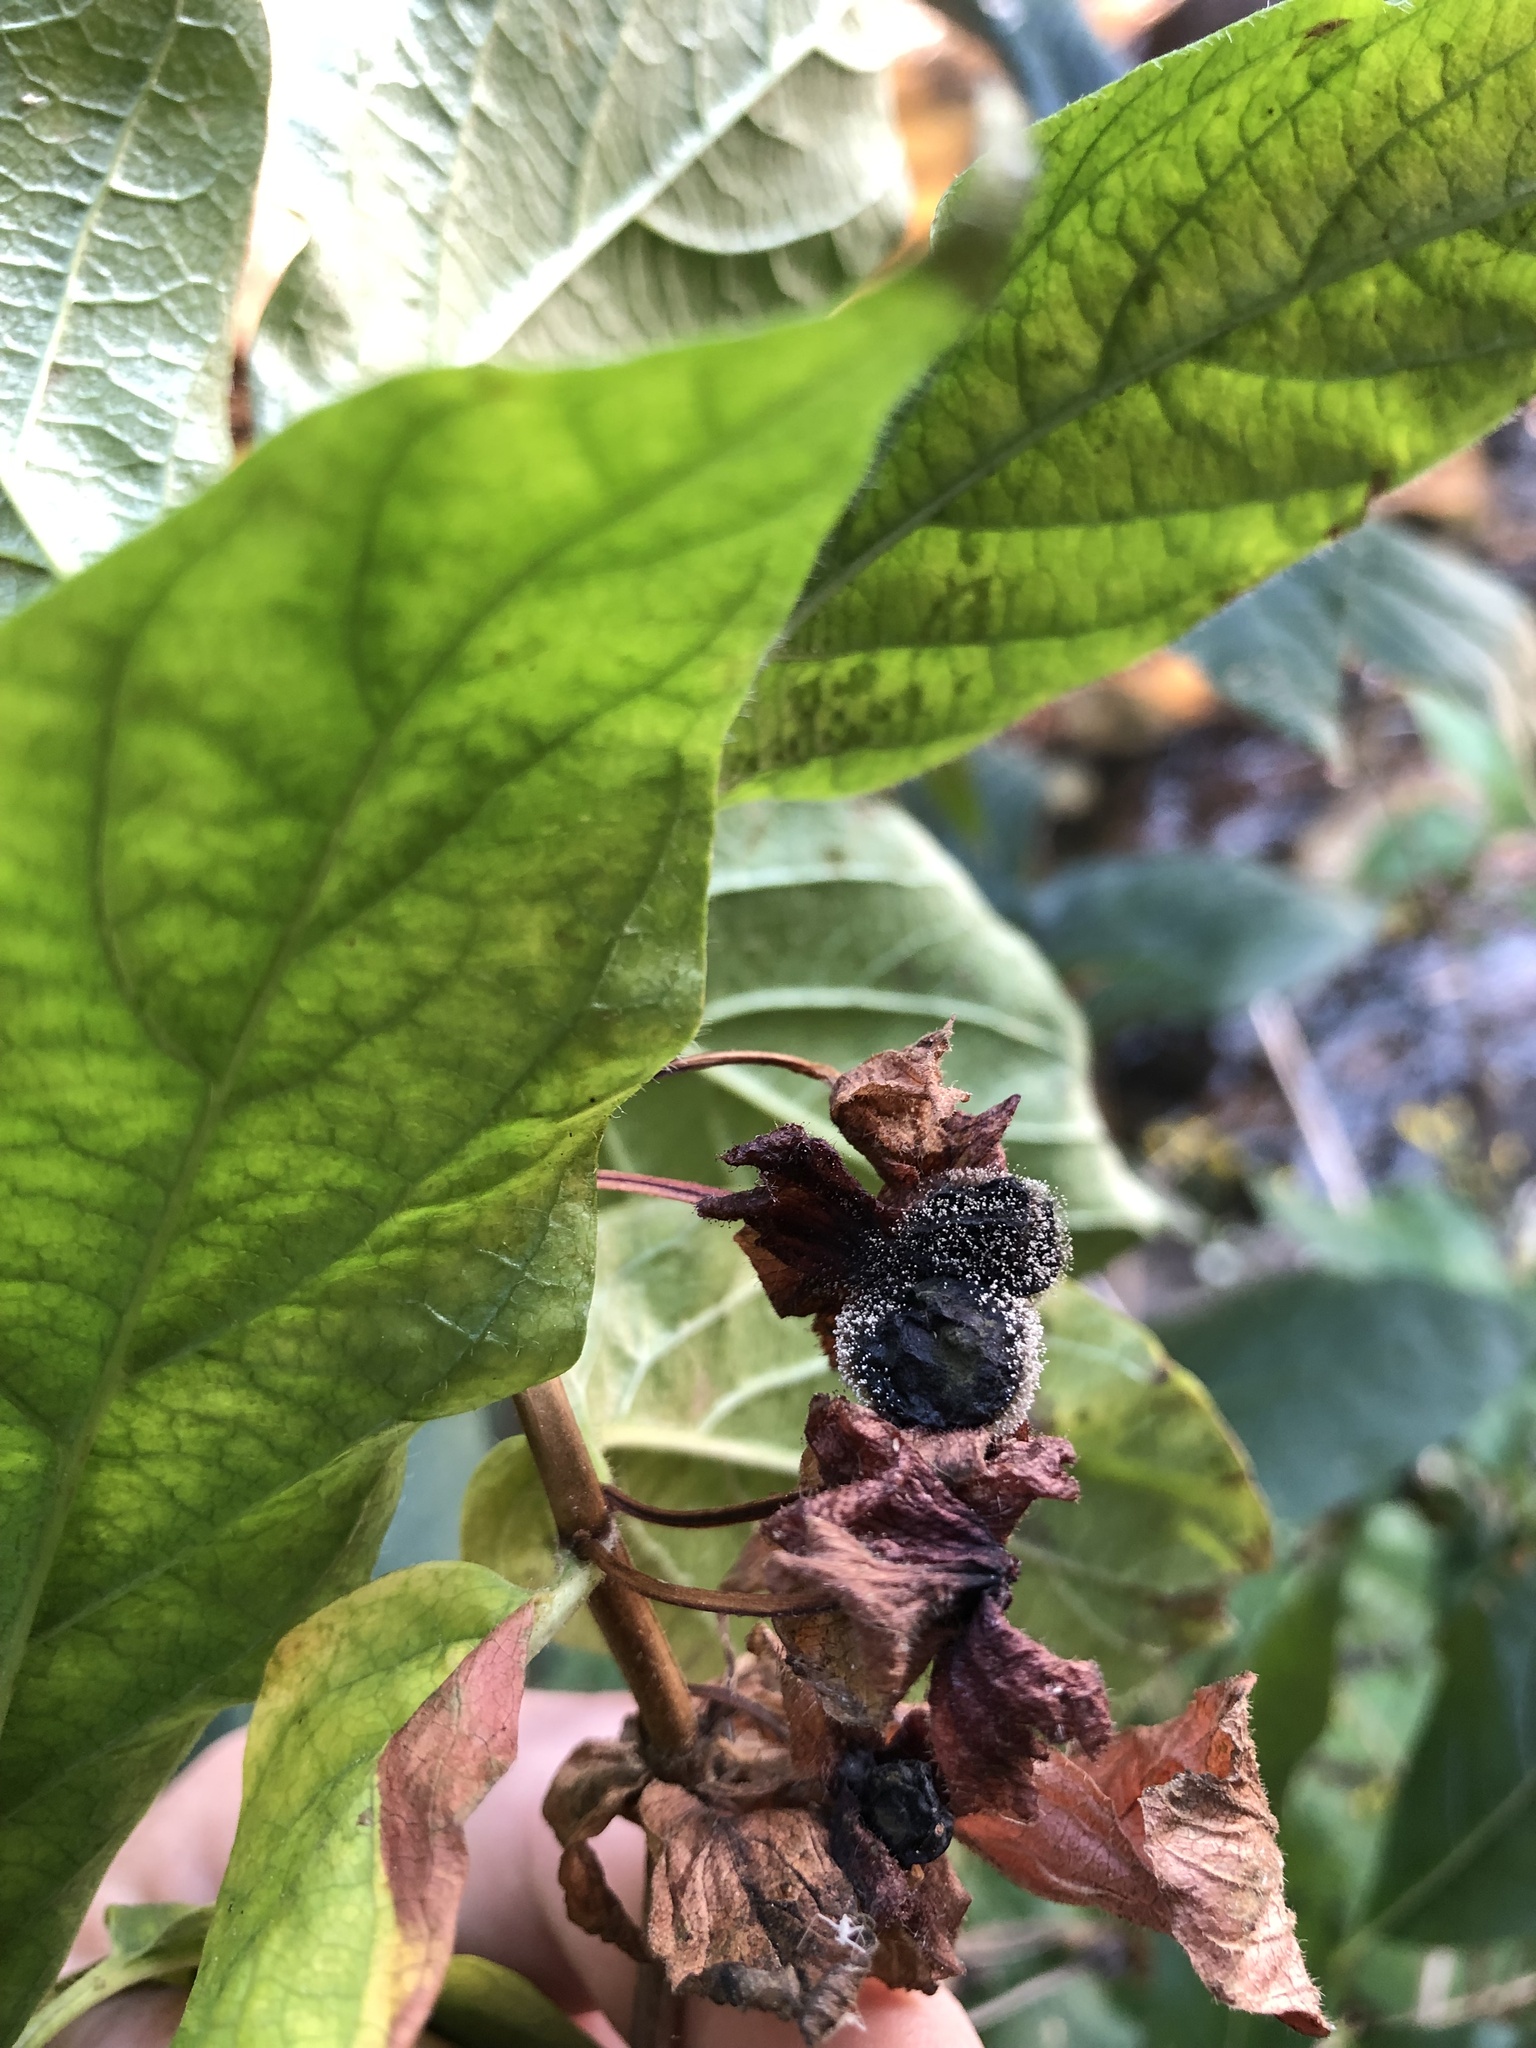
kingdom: Plantae
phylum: Tracheophyta
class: Magnoliopsida
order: Dipsacales
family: Caprifoliaceae
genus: Lonicera
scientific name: Lonicera involucrata
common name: Californian honeysuckle
